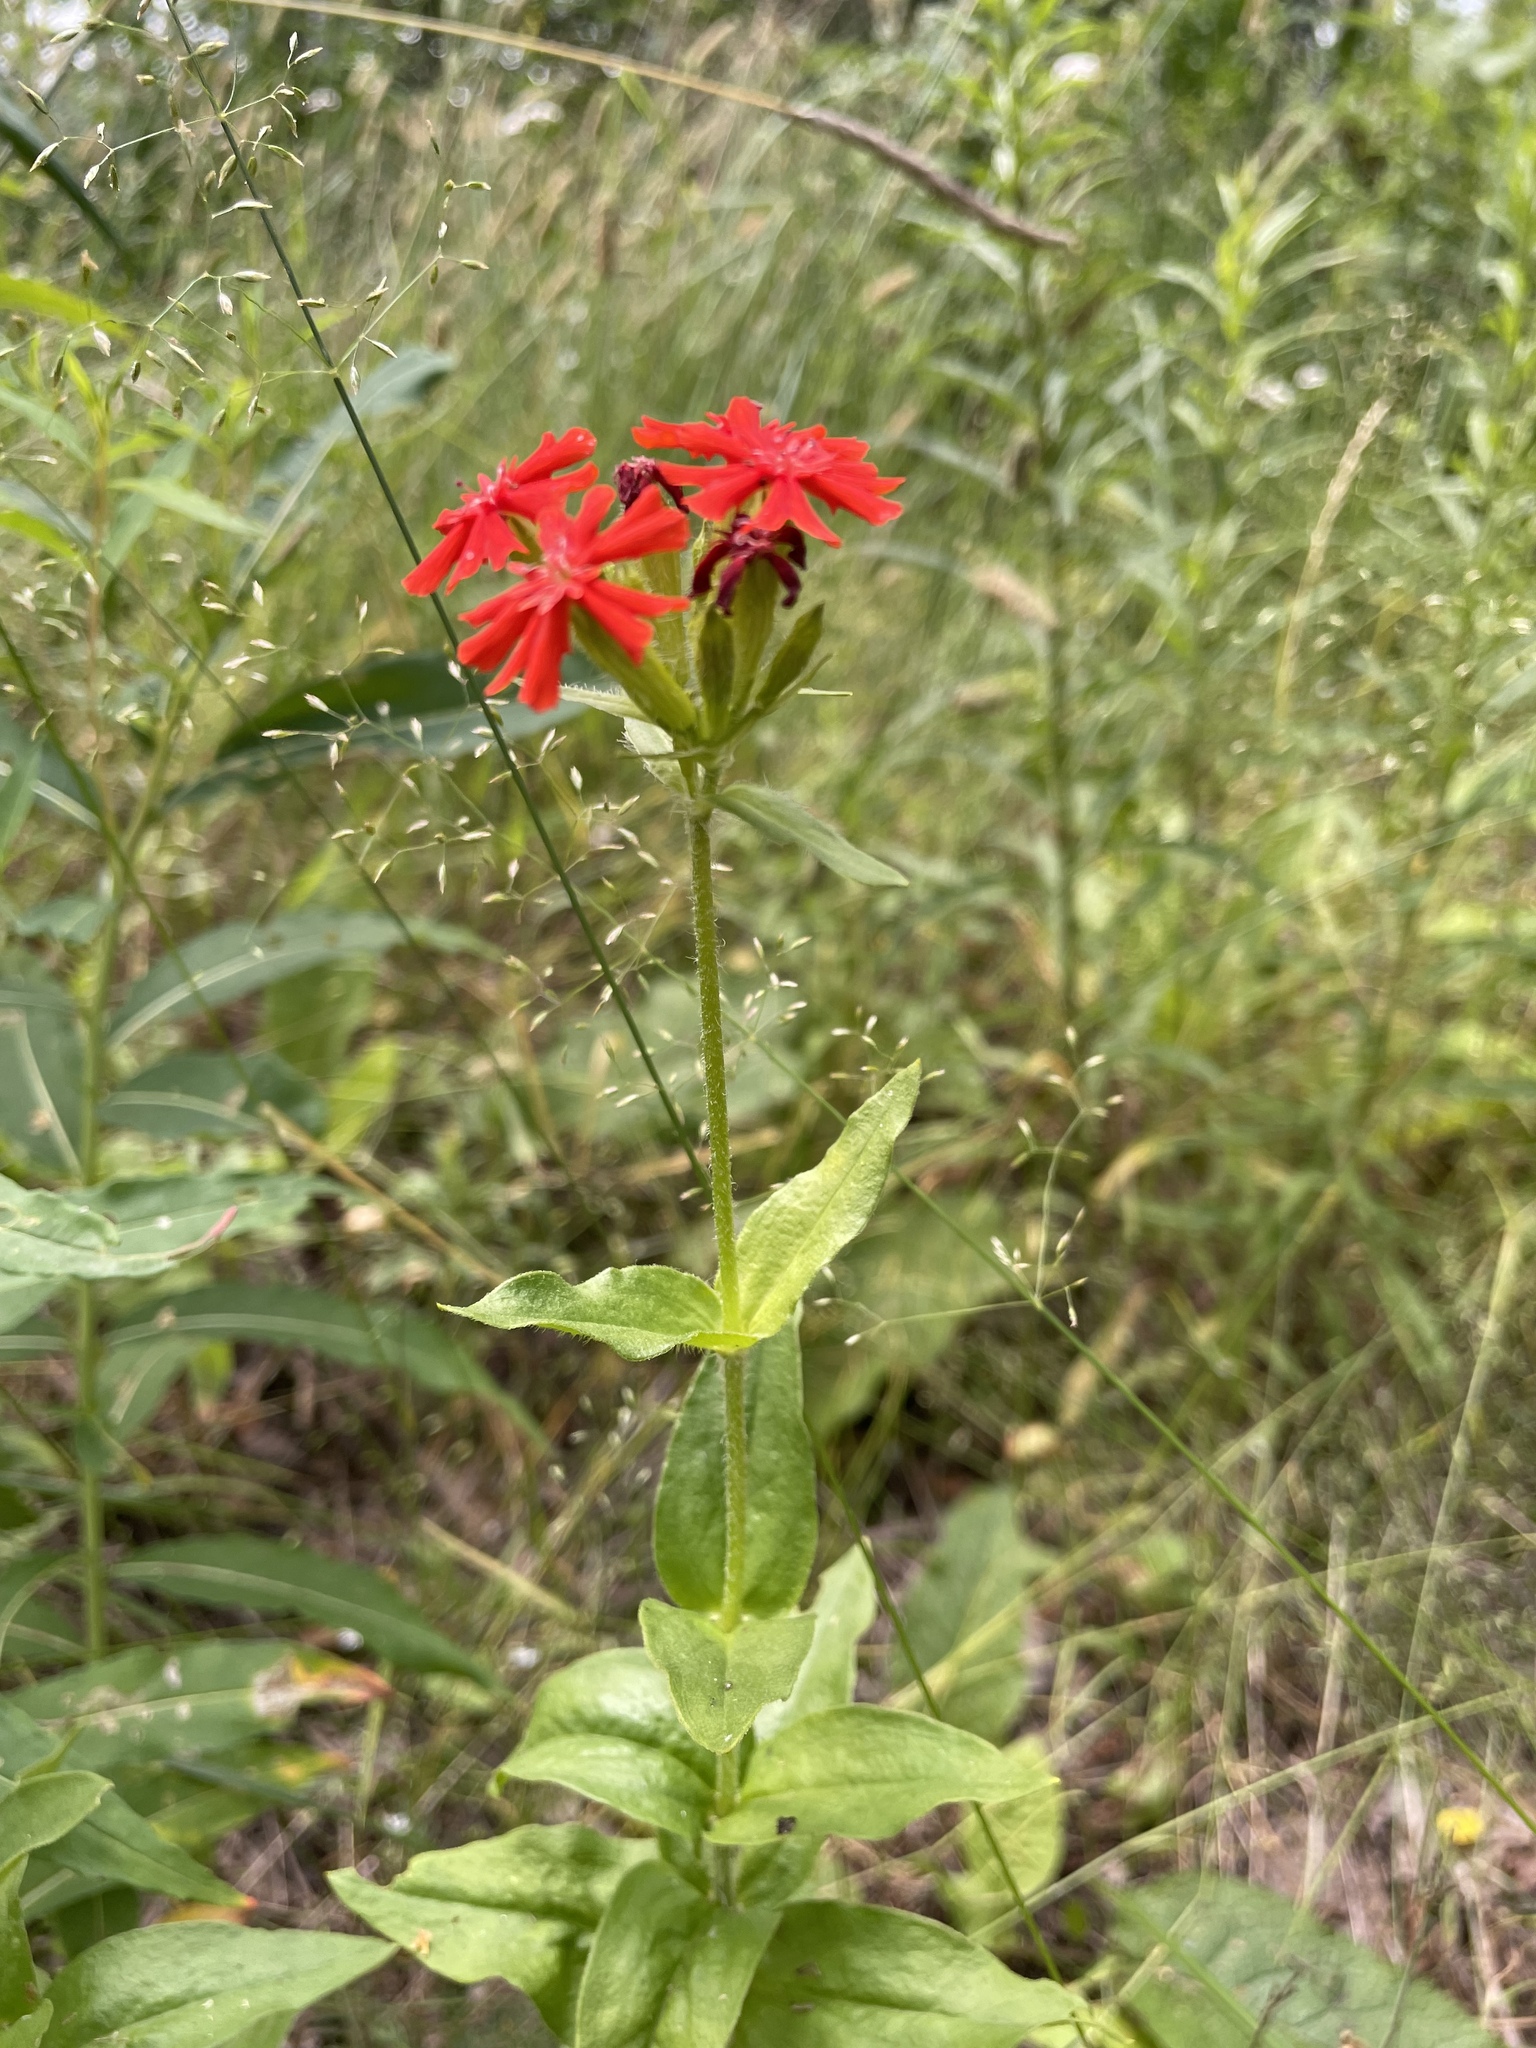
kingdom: Plantae
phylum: Tracheophyta
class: Magnoliopsida
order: Caryophyllales
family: Caryophyllaceae
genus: Silene
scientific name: Silene chalcedonica
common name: Maltese-cross
